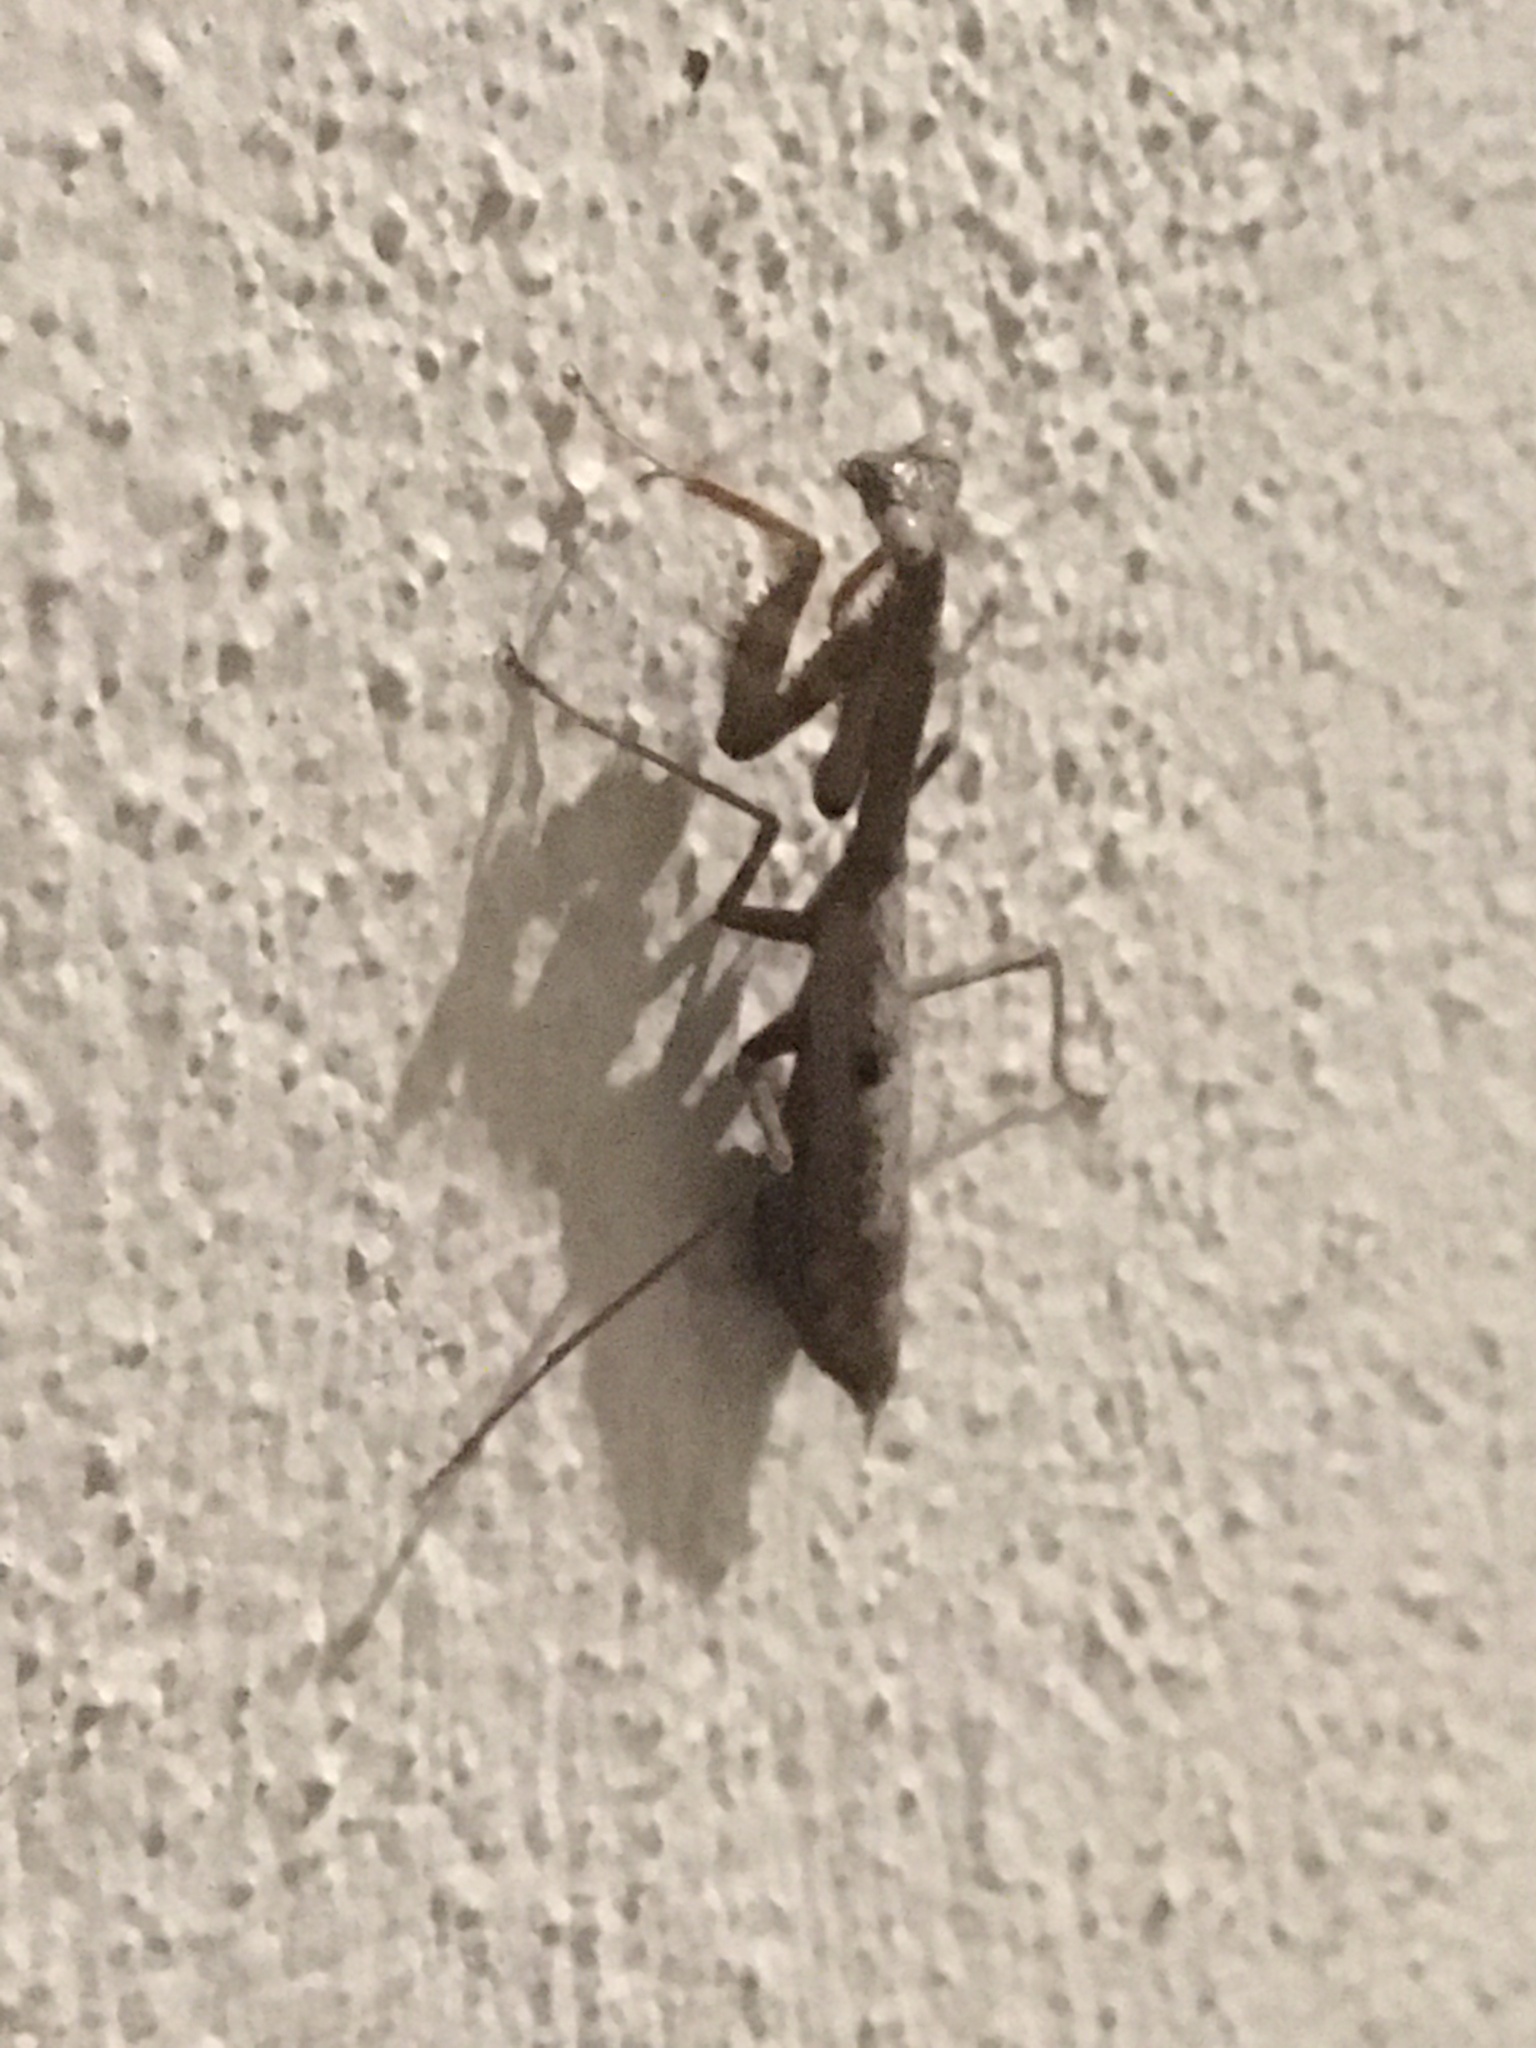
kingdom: Animalia
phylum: Arthropoda
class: Insecta
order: Mantodea
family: Mantidae
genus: Stagmomantis
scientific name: Stagmomantis carolina
